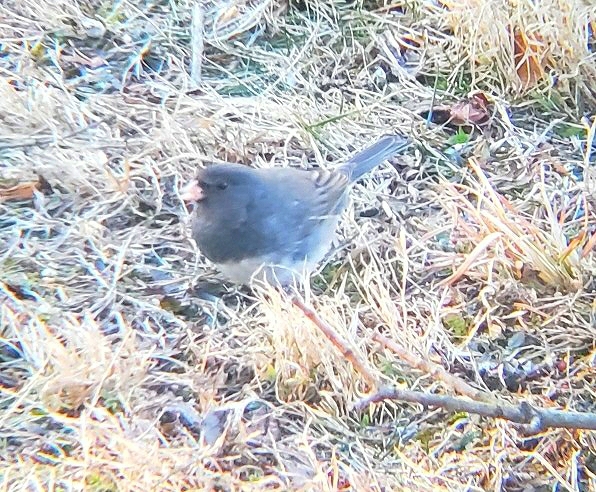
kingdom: Animalia
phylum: Chordata
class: Aves
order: Passeriformes
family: Passerellidae
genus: Junco
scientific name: Junco hyemalis
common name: Dark-eyed junco
